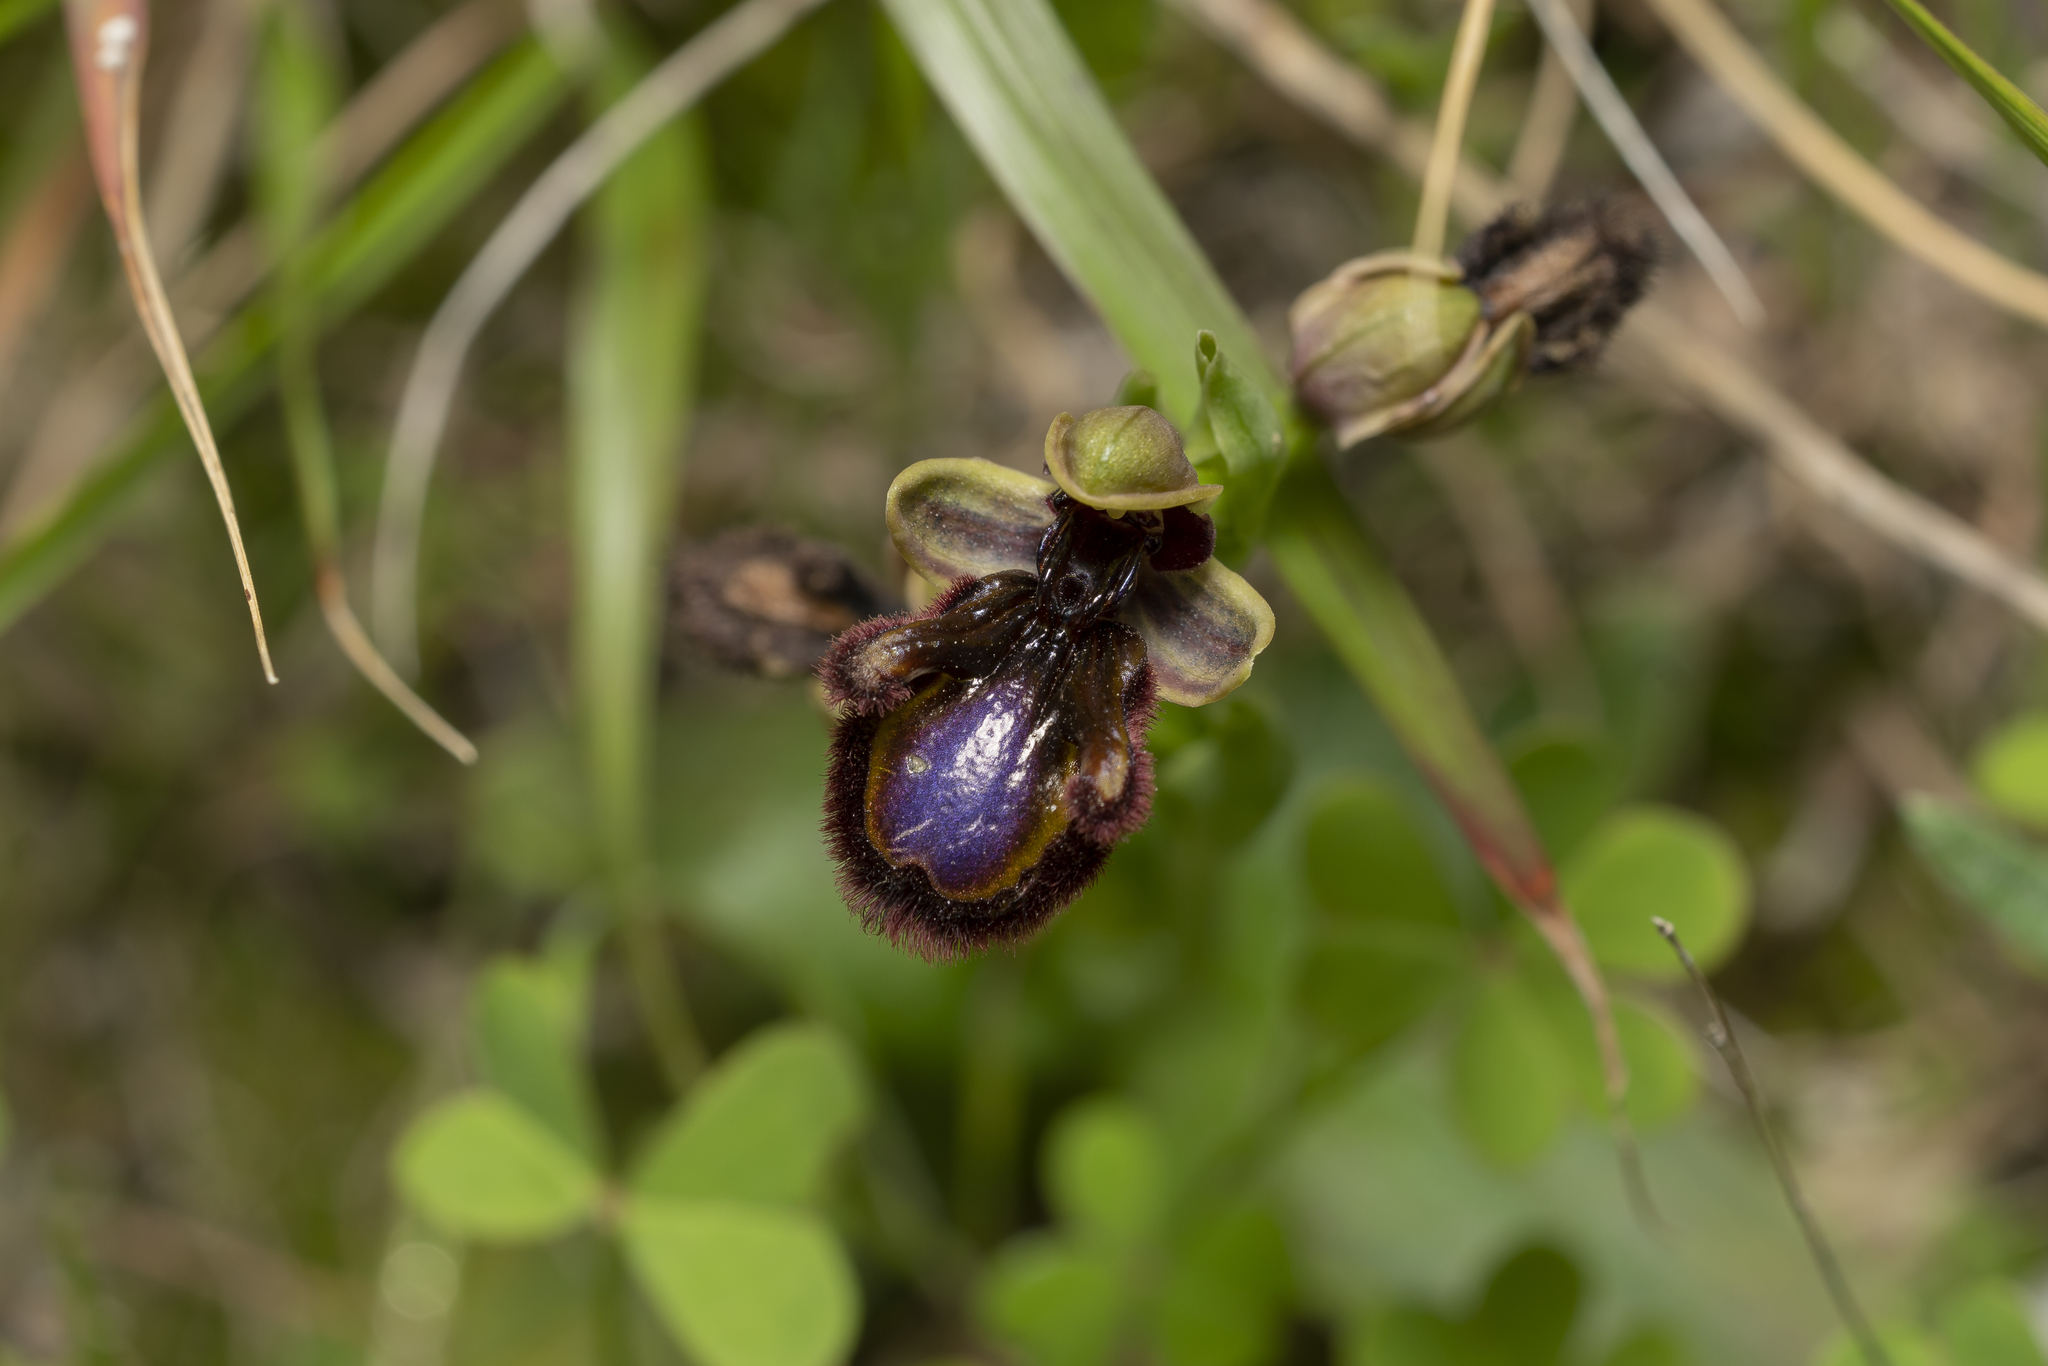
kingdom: Plantae
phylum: Tracheophyta
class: Liliopsida
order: Asparagales
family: Orchidaceae
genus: Ophrys
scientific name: Ophrys speculum
